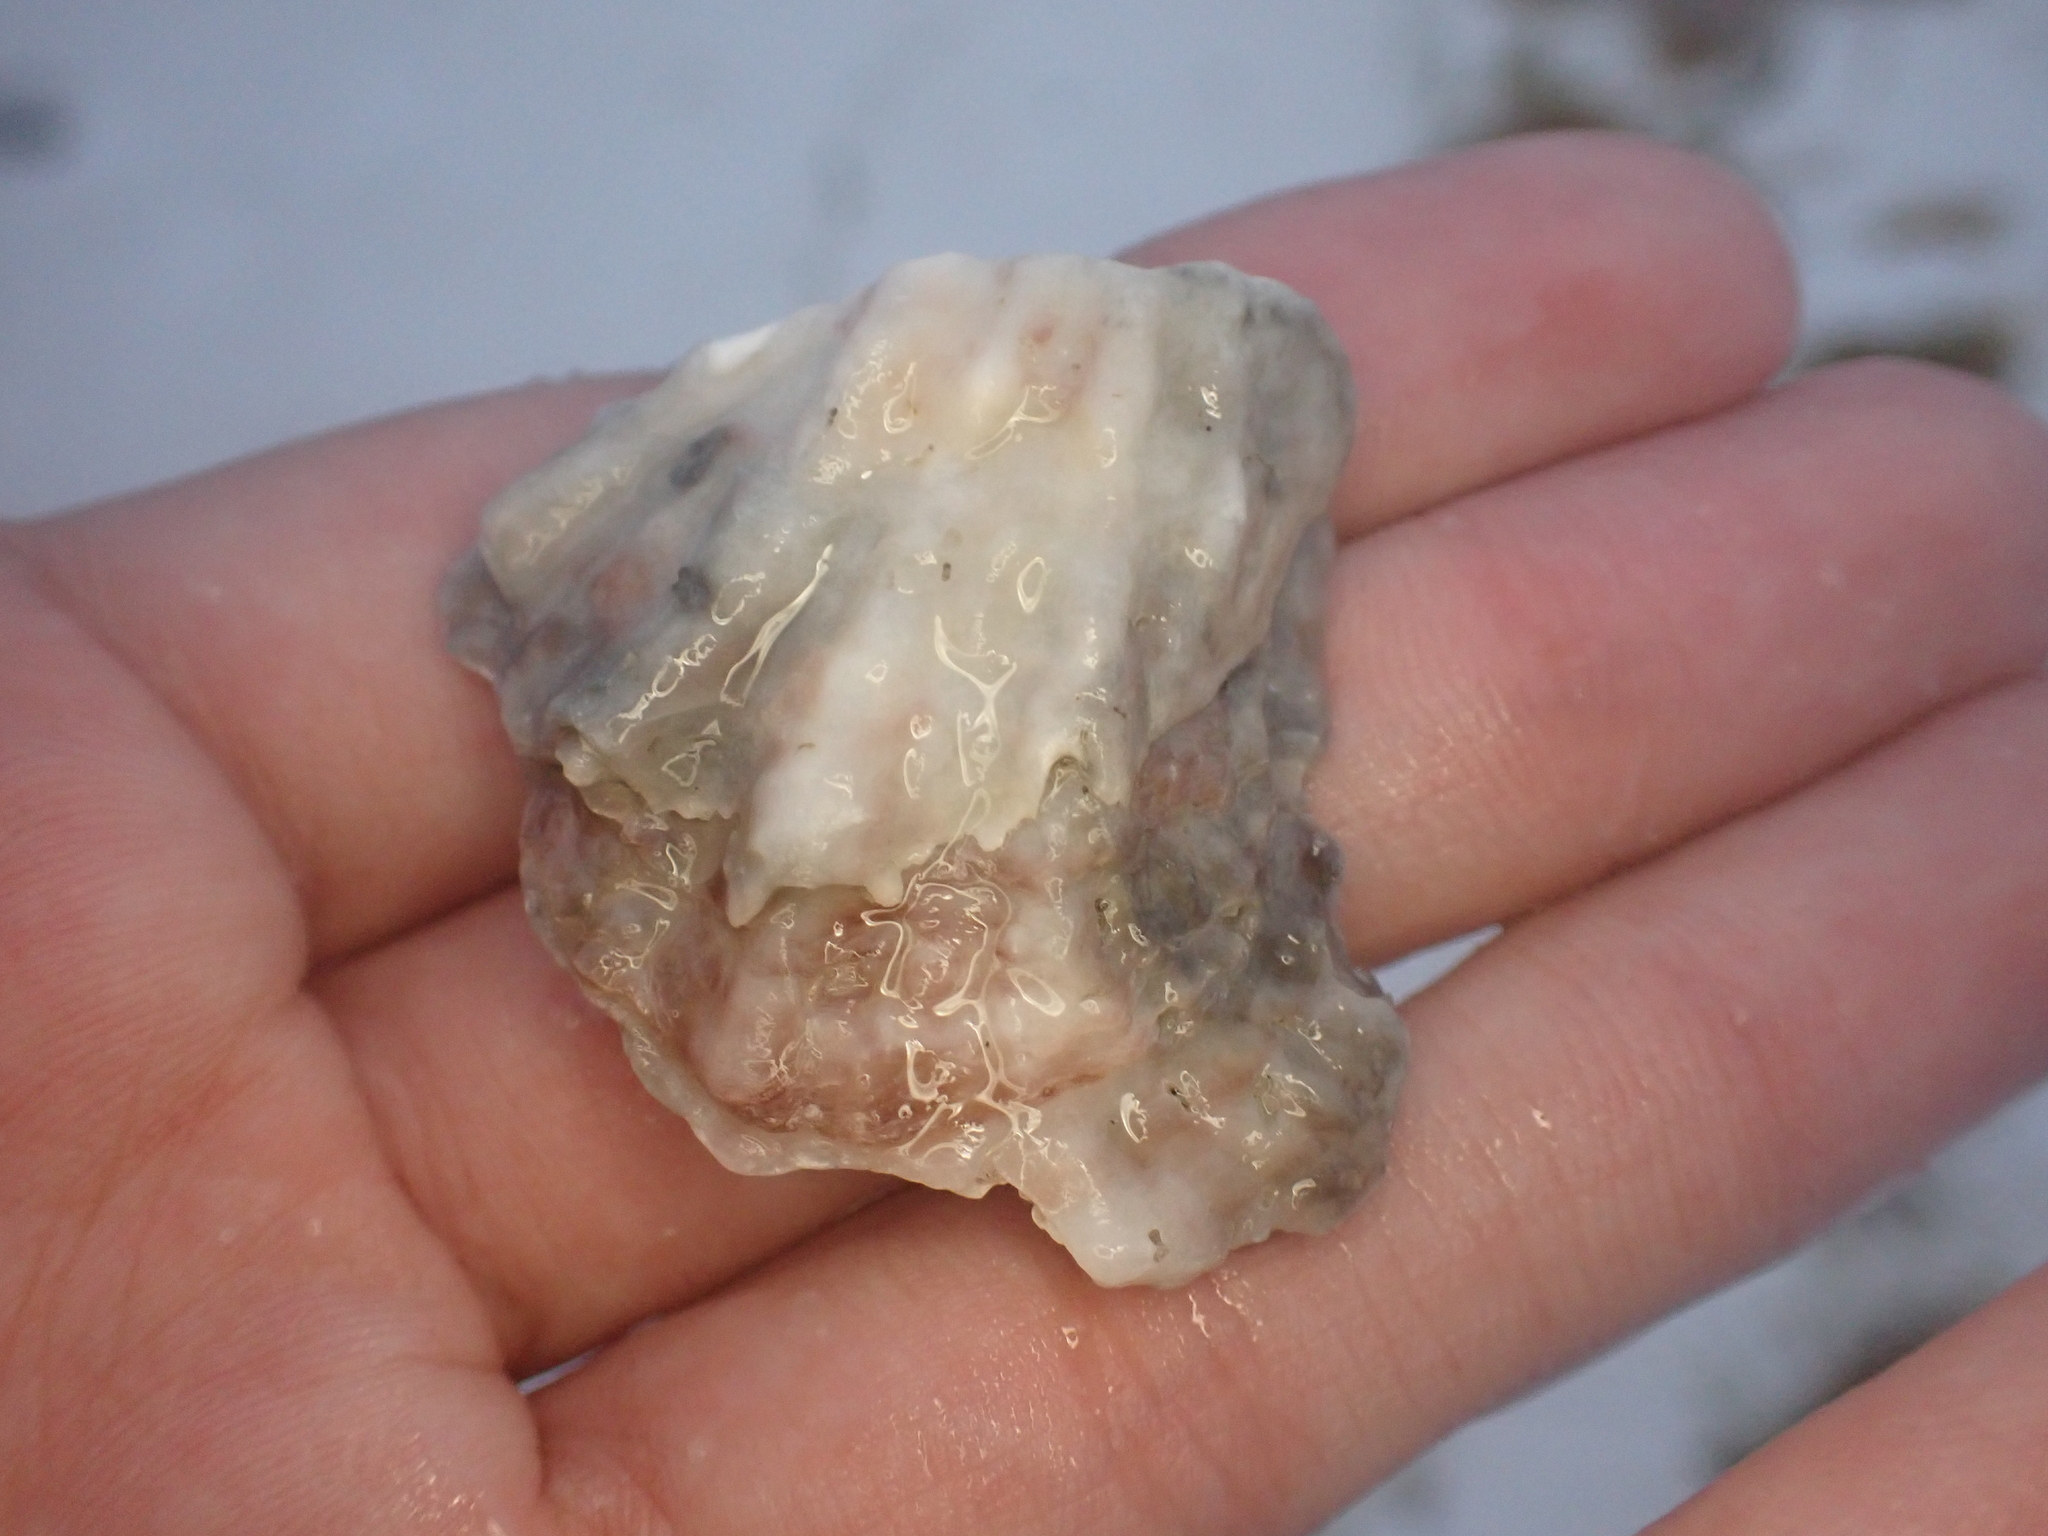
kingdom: Animalia
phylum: Mollusca
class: Bivalvia
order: Ostreida
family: Ostreidae
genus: Crassostrea
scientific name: Crassostrea virginica
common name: American oyster
